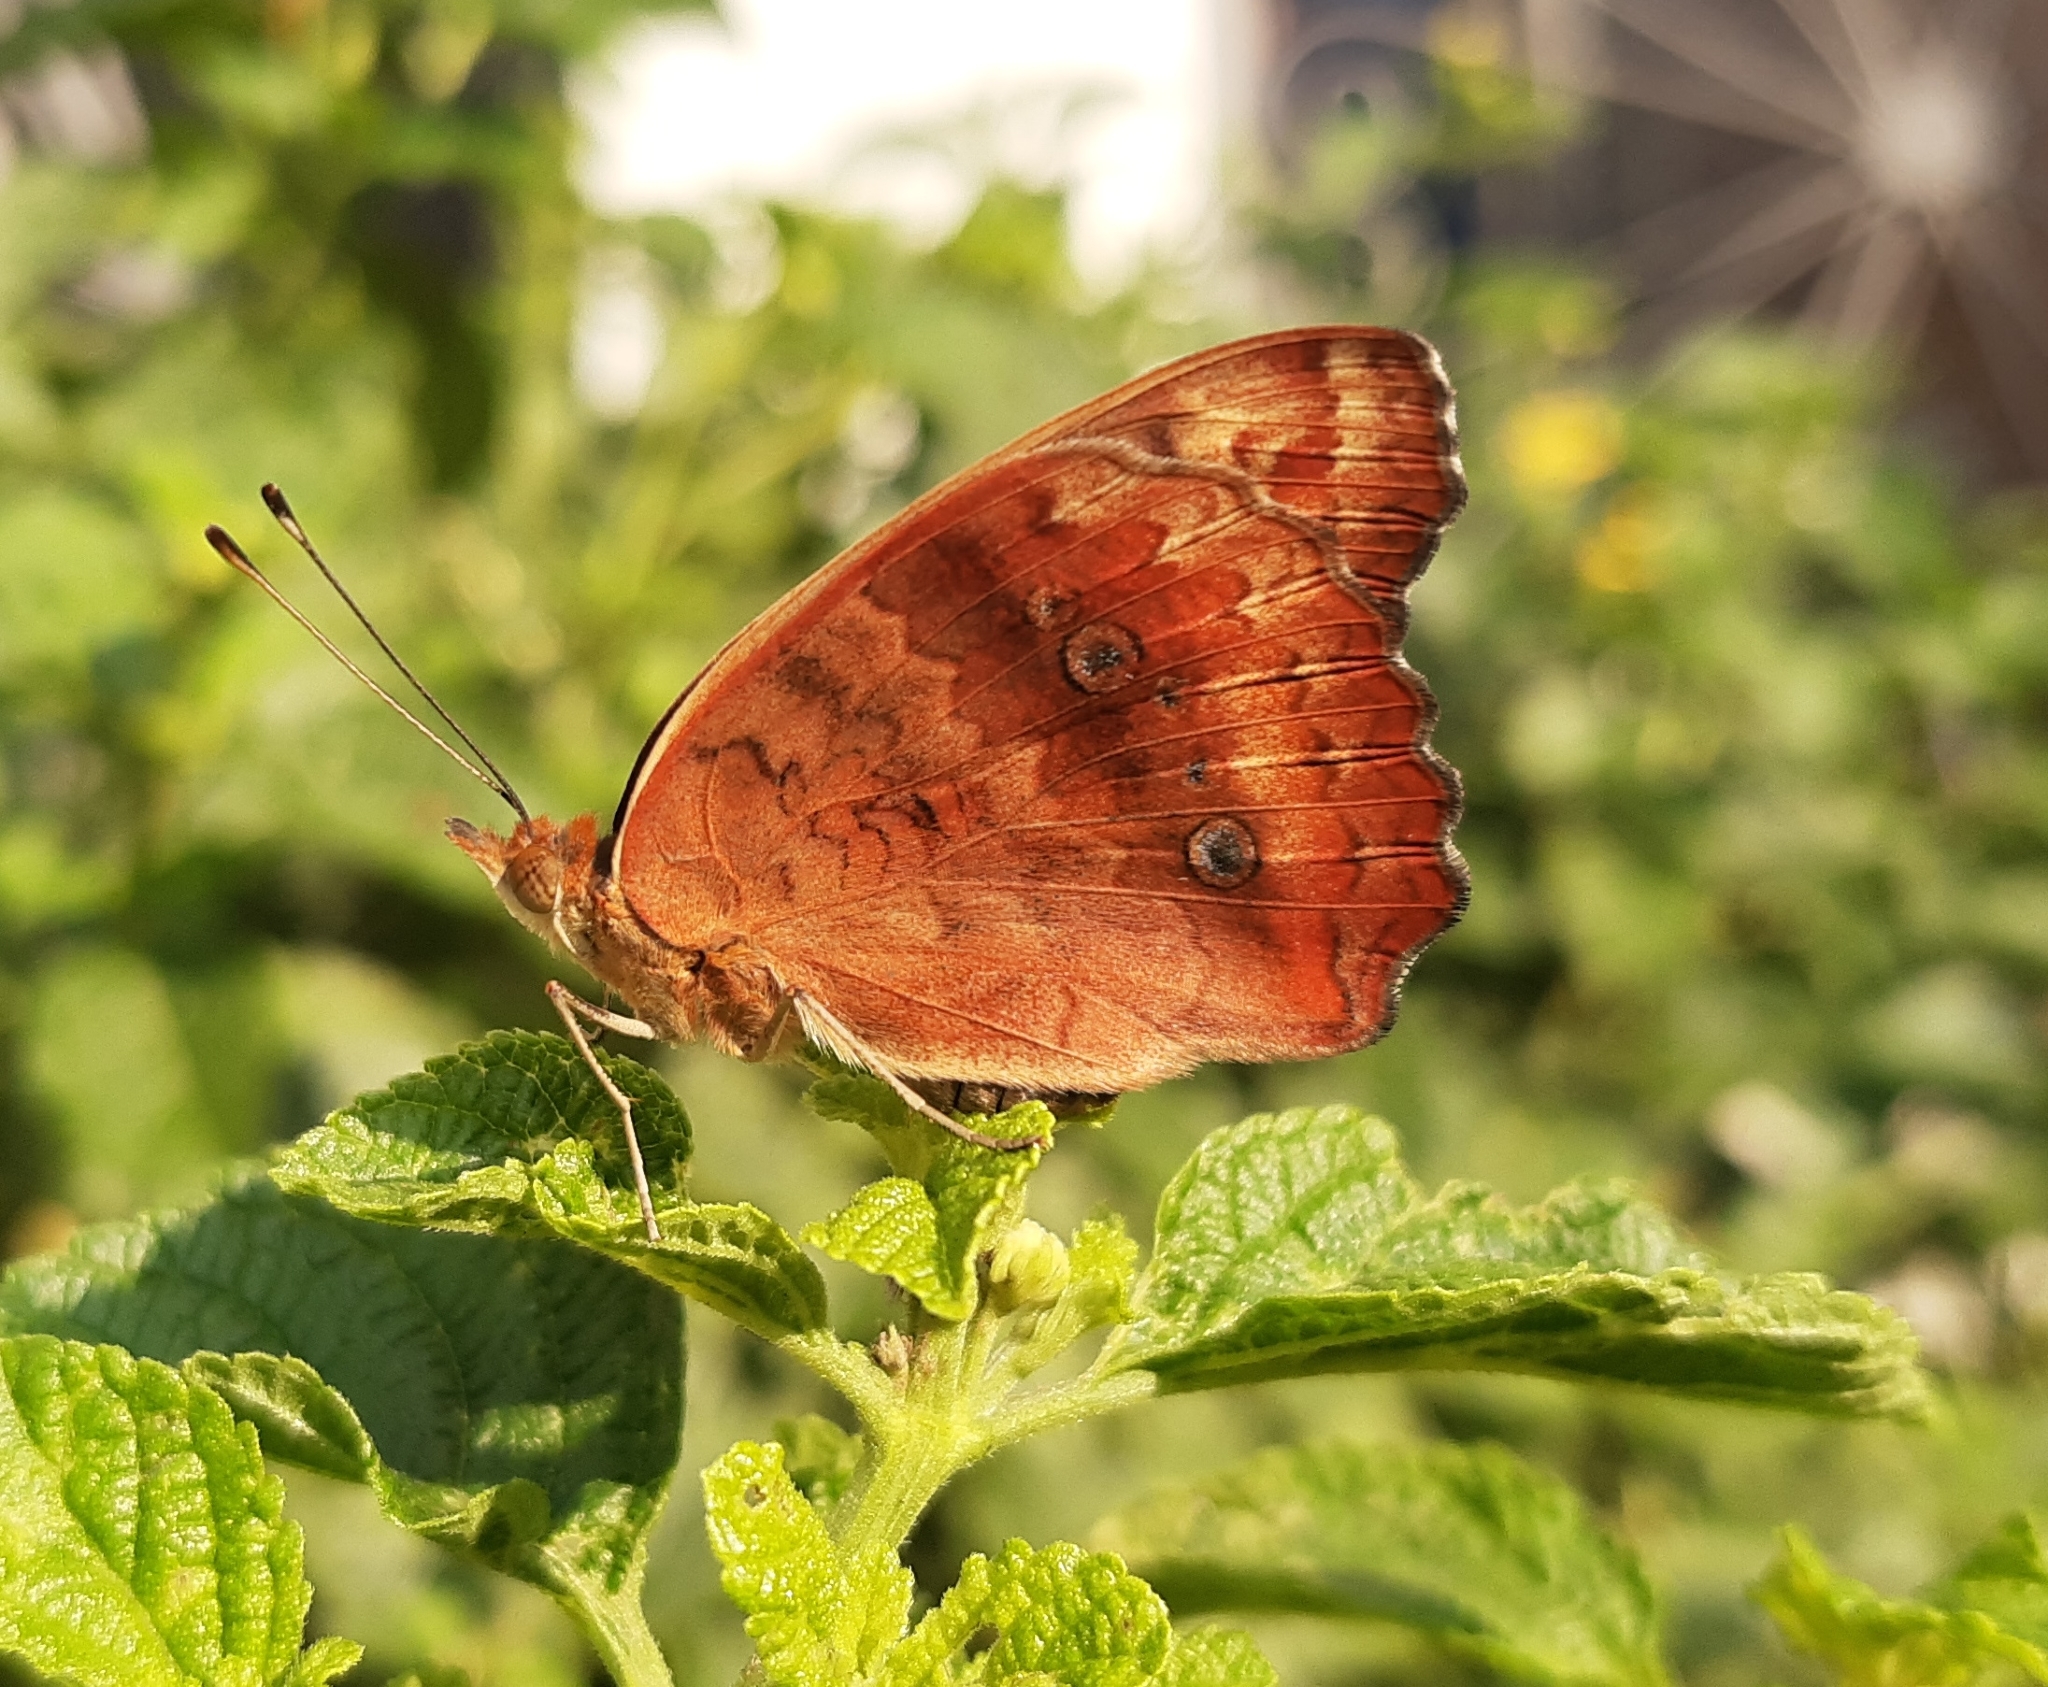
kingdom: Animalia
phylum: Arthropoda
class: Insecta
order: Lepidoptera
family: Nymphalidae
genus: Junonia
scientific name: Junonia evarete
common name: Black mangrove buckeye
